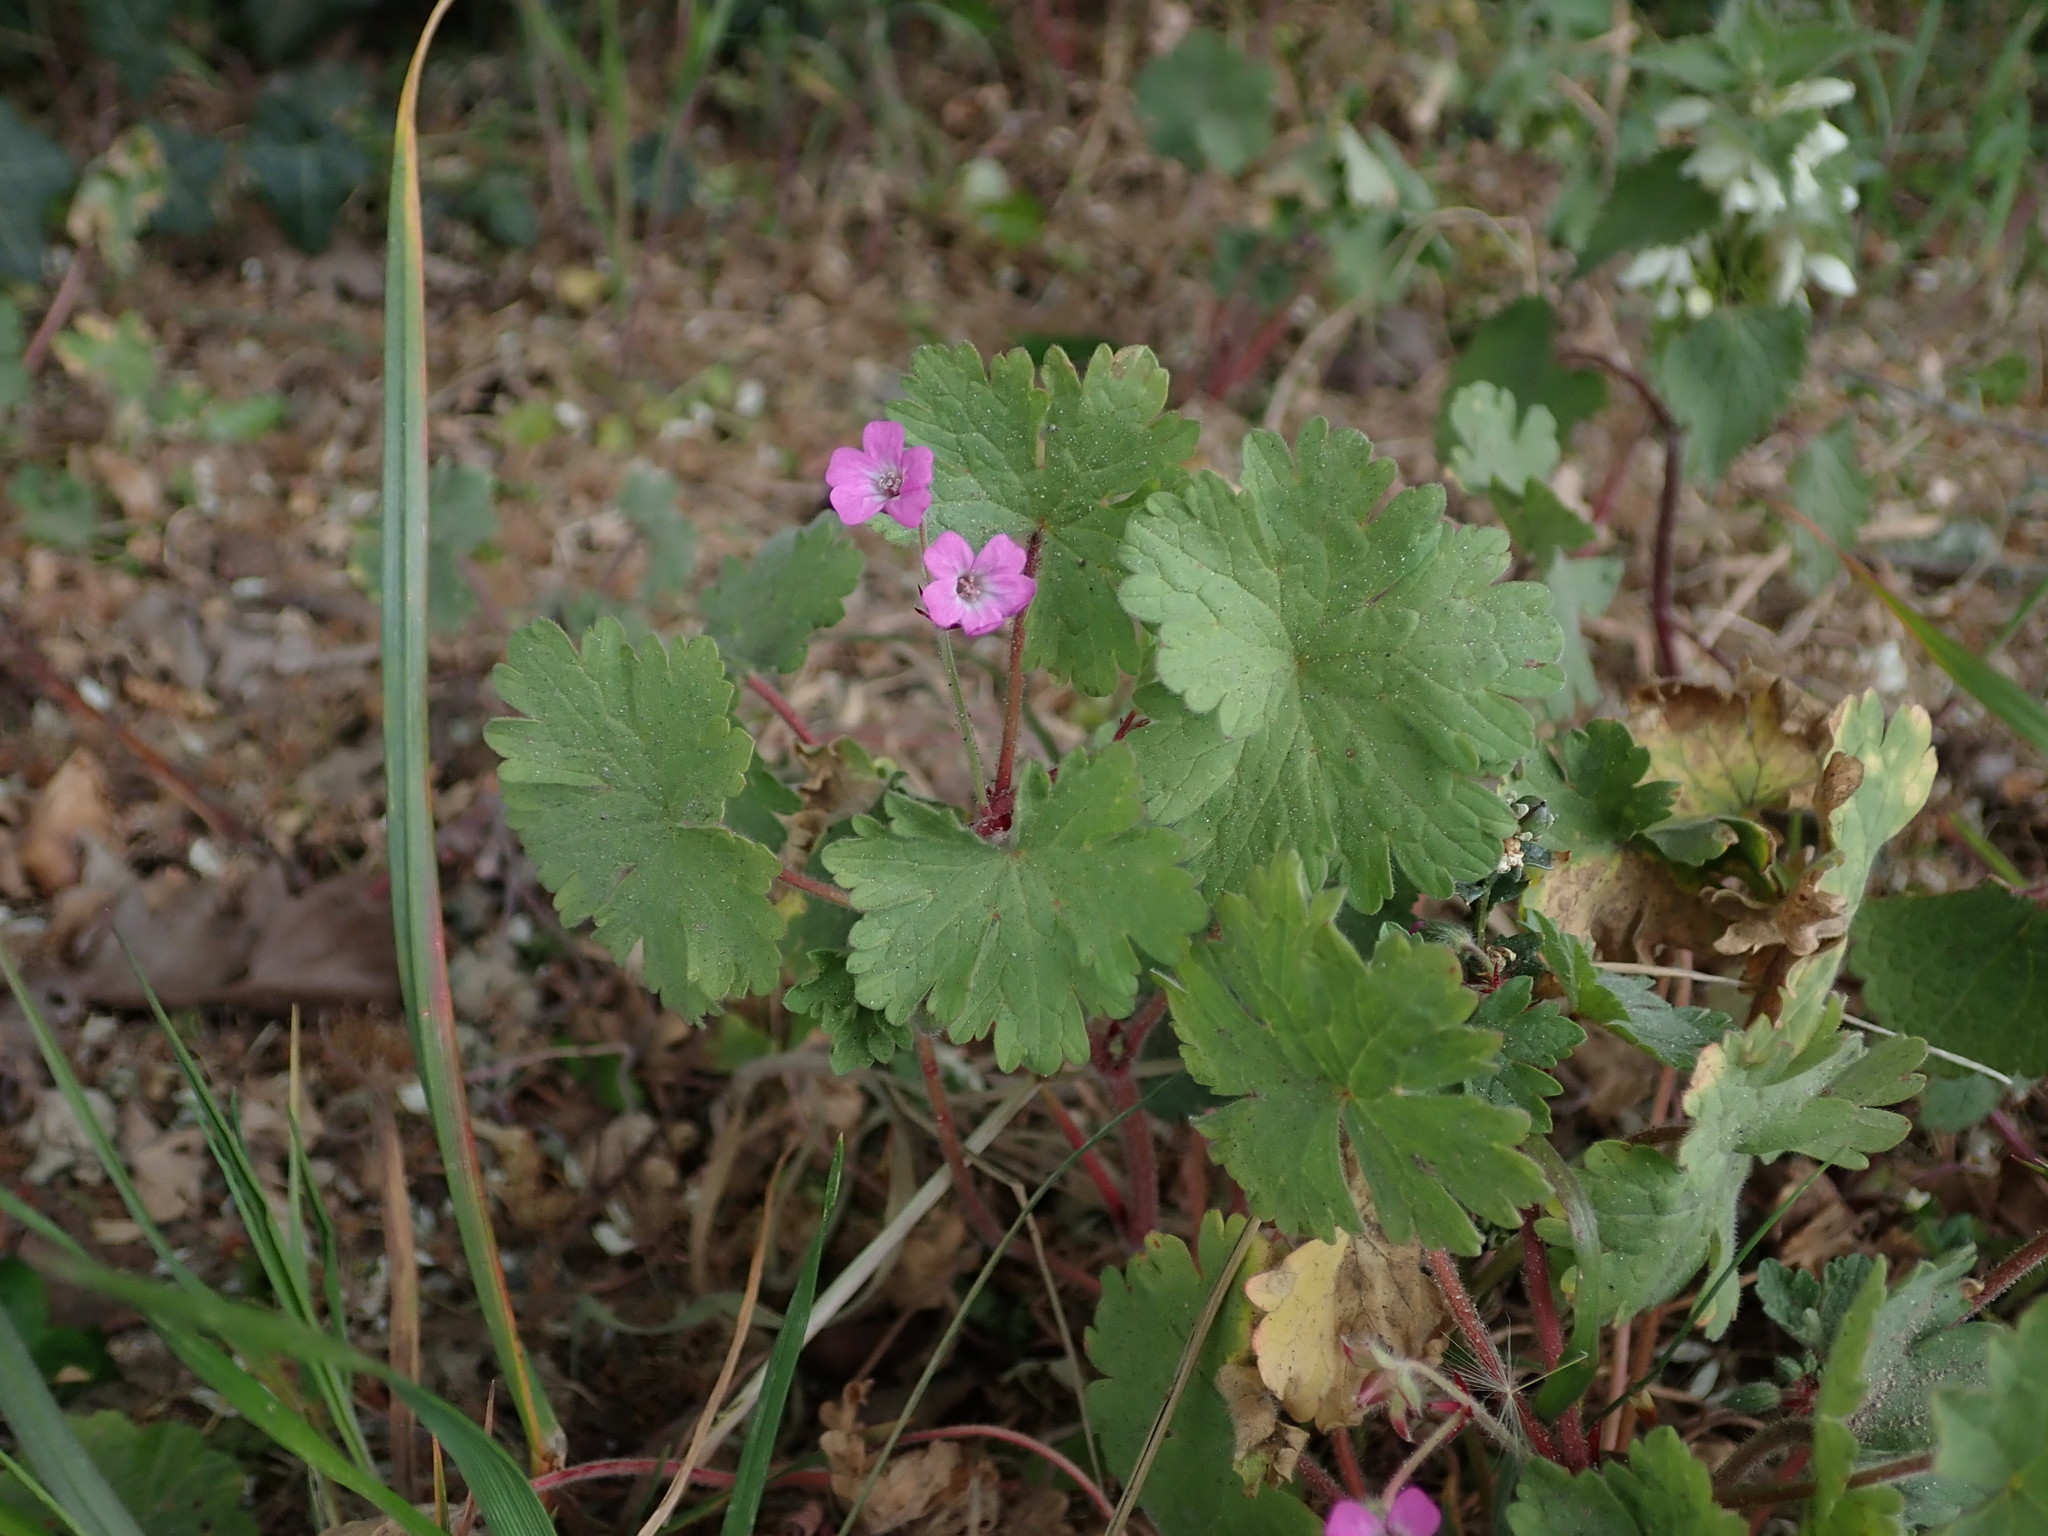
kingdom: Plantae
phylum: Tracheophyta
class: Magnoliopsida
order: Geraniales
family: Geraniaceae
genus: Geranium
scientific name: Geranium rotundifolium
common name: Round-leaved crane's-bill
